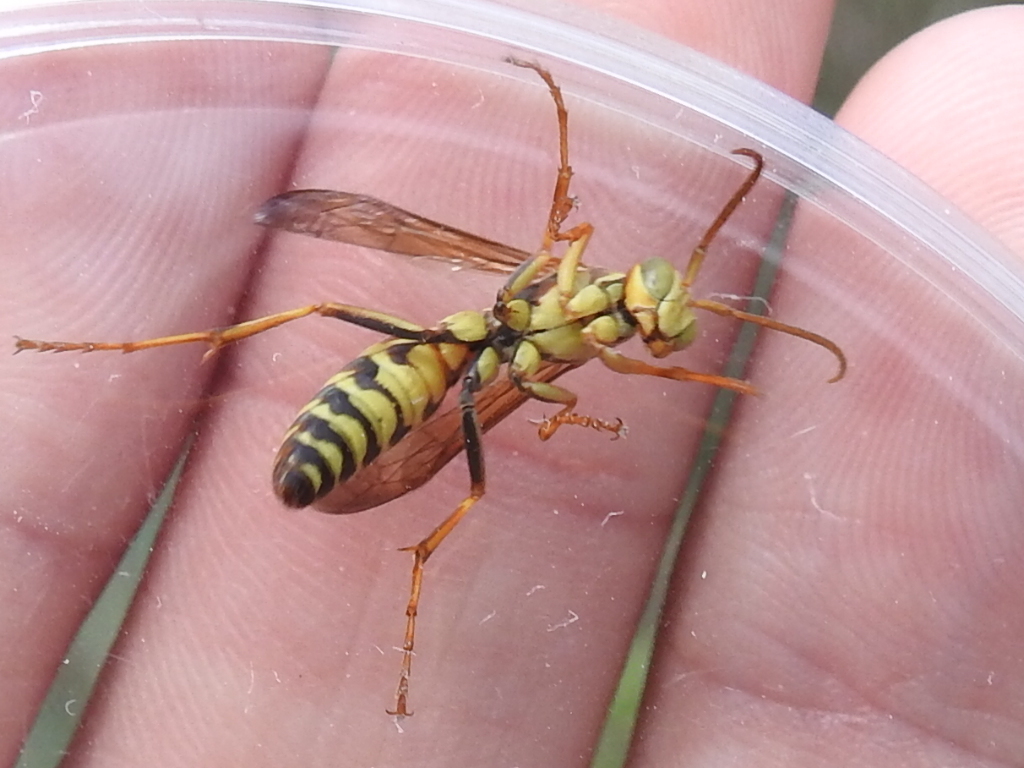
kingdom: Animalia
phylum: Arthropoda
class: Insecta
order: Hymenoptera
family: Eumenidae
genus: Polistes
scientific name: Polistes dorsalis
